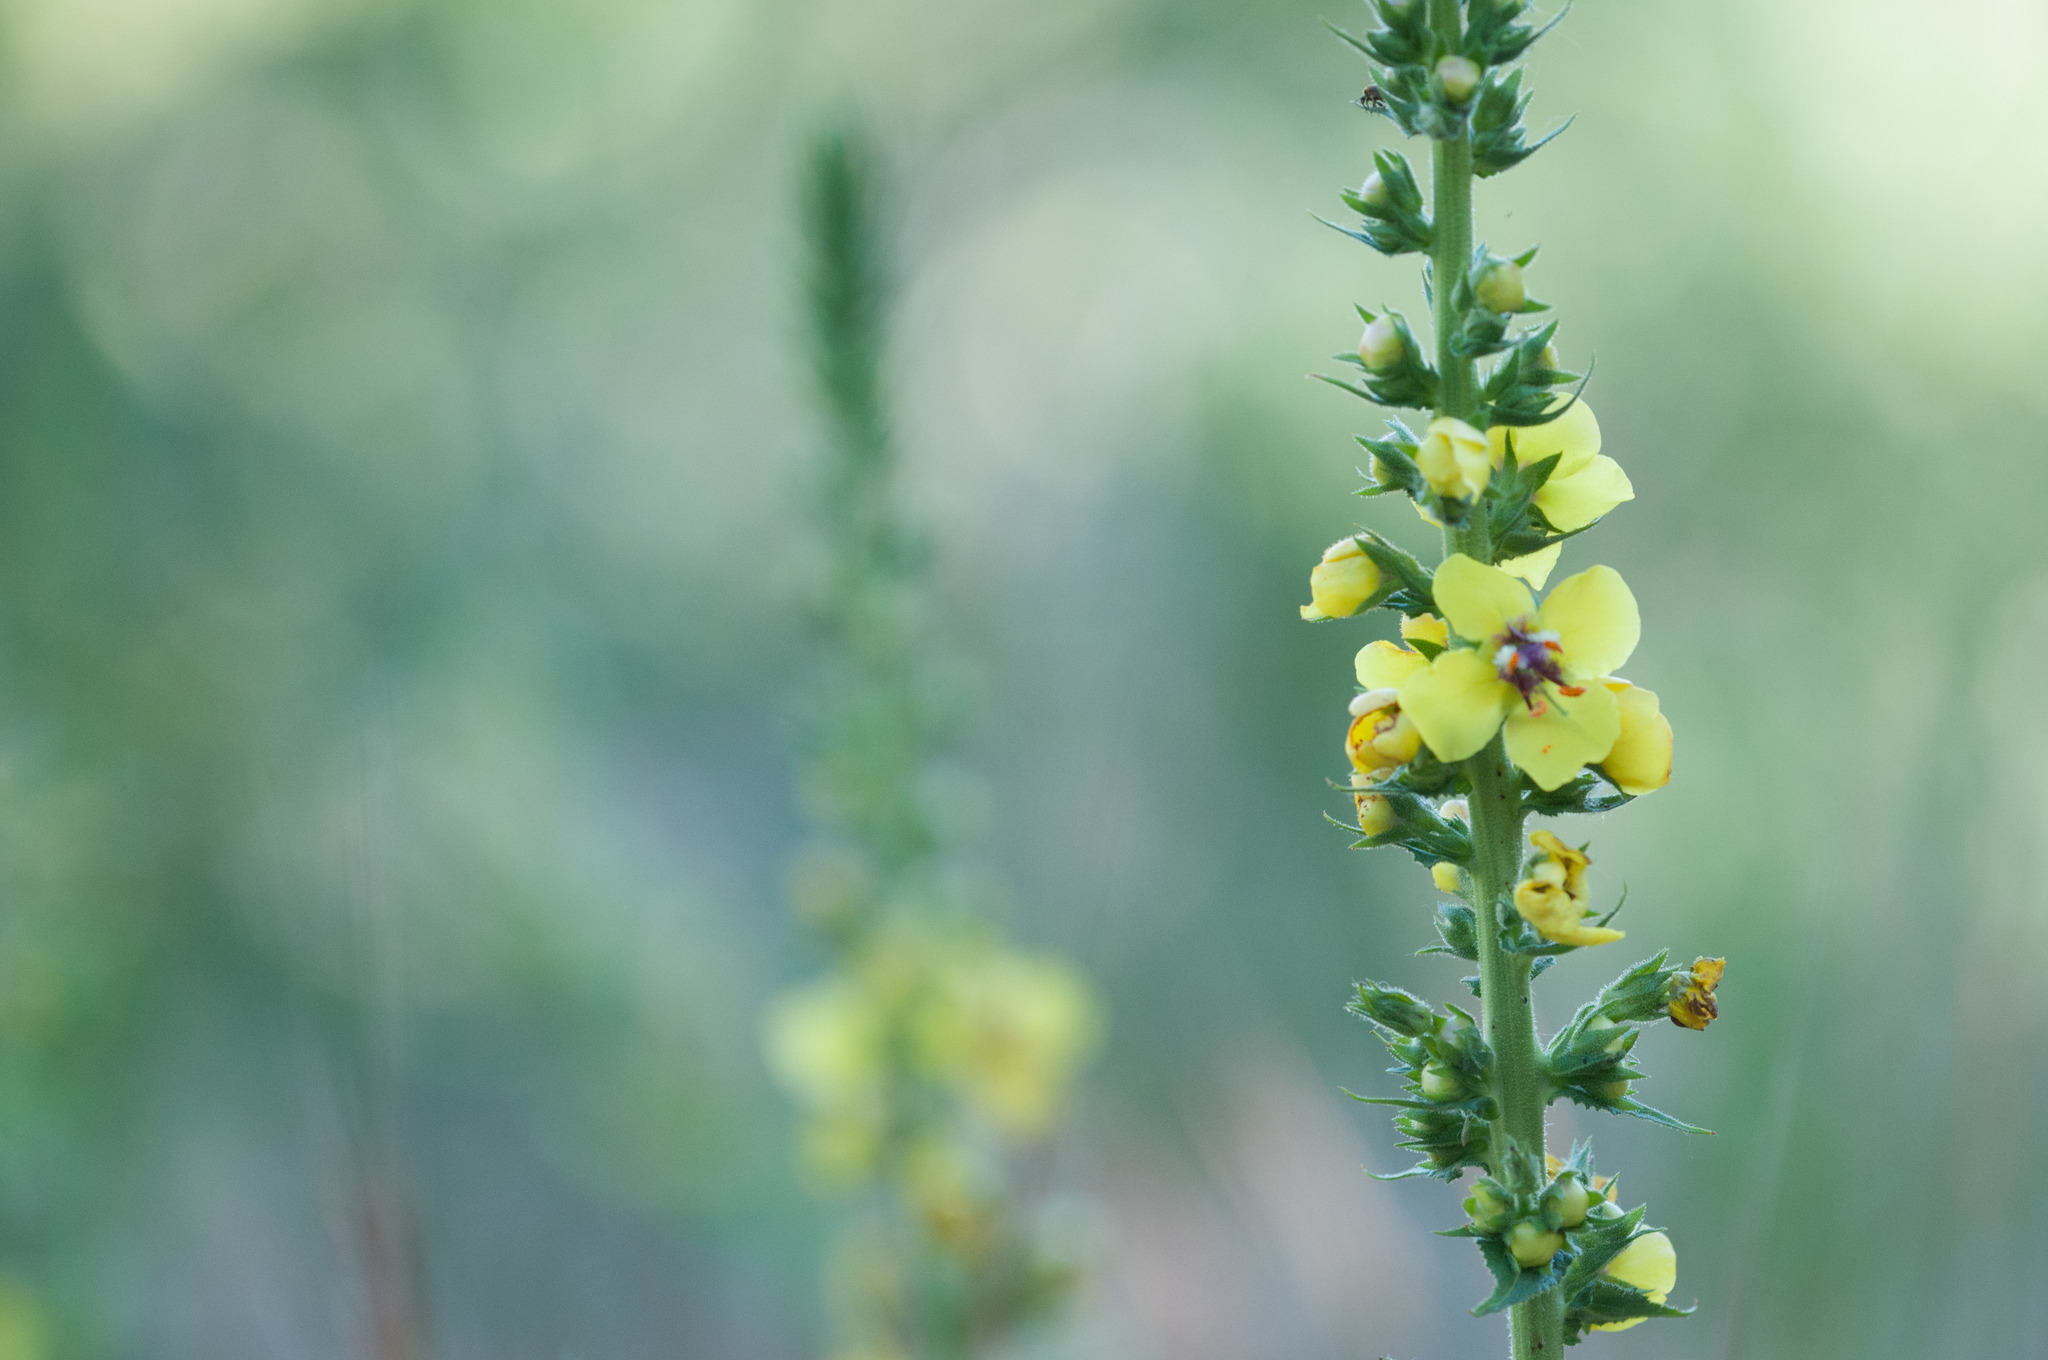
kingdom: Plantae
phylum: Tracheophyta
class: Magnoliopsida
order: Lamiales
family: Scrophulariaceae
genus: Verbascum
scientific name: Verbascum virgatum
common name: Twiggy mullein
